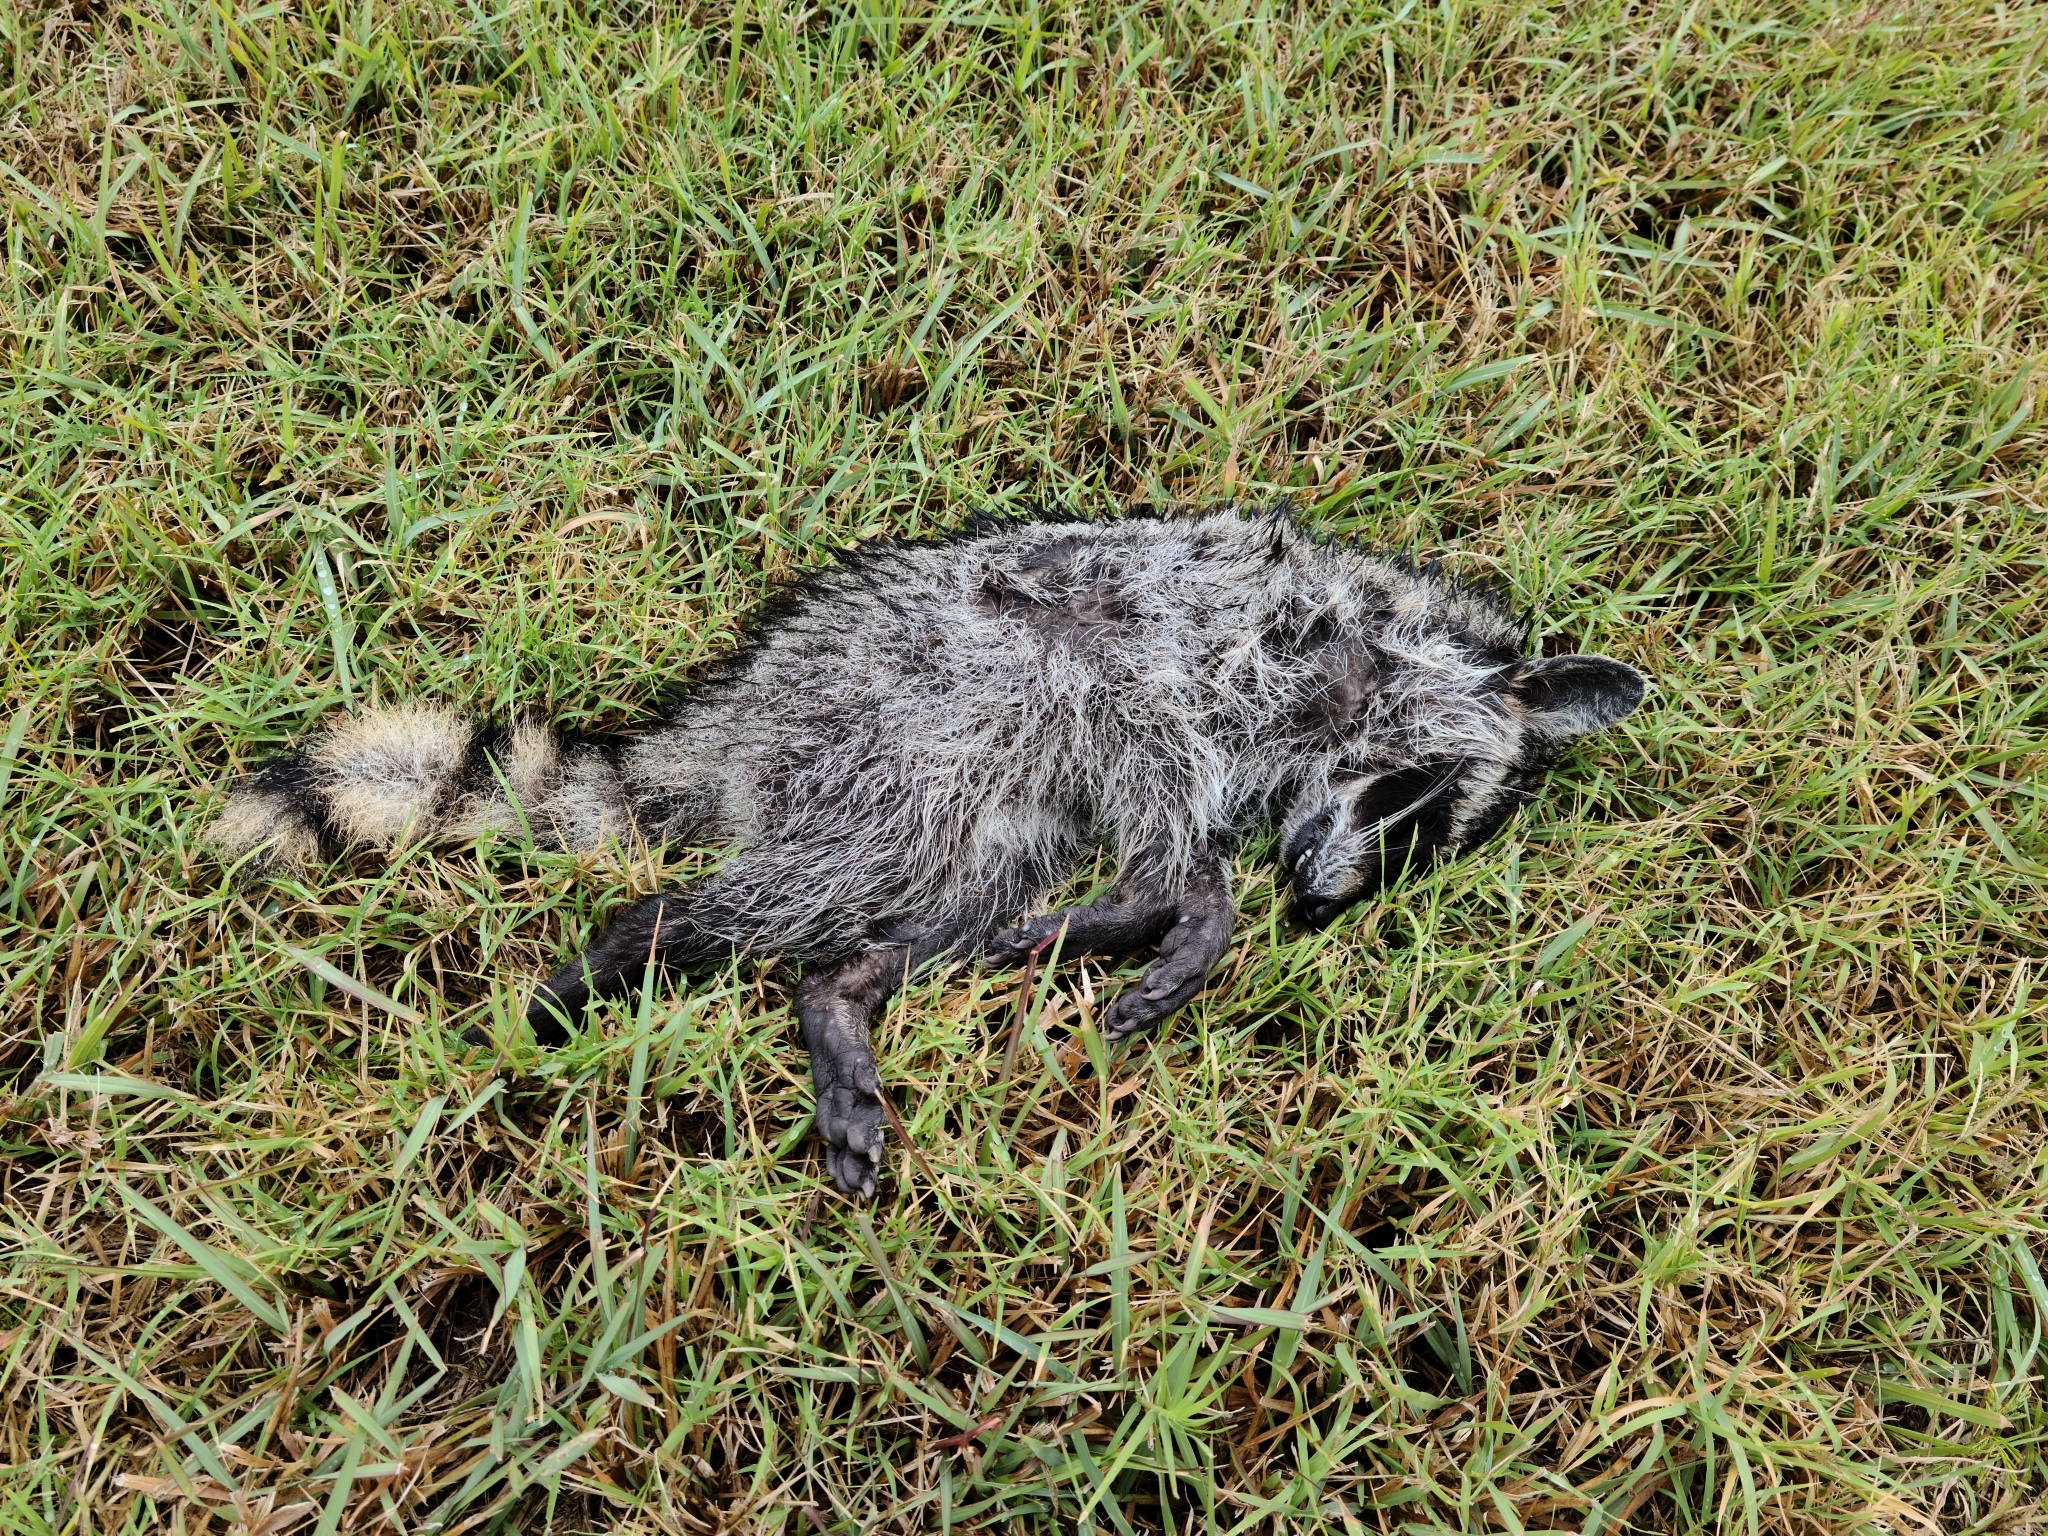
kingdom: Animalia
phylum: Chordata
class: Mammalia
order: Carnivora
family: Procyonidae
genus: Procyon
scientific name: Procyon lotor
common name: Raccoon
